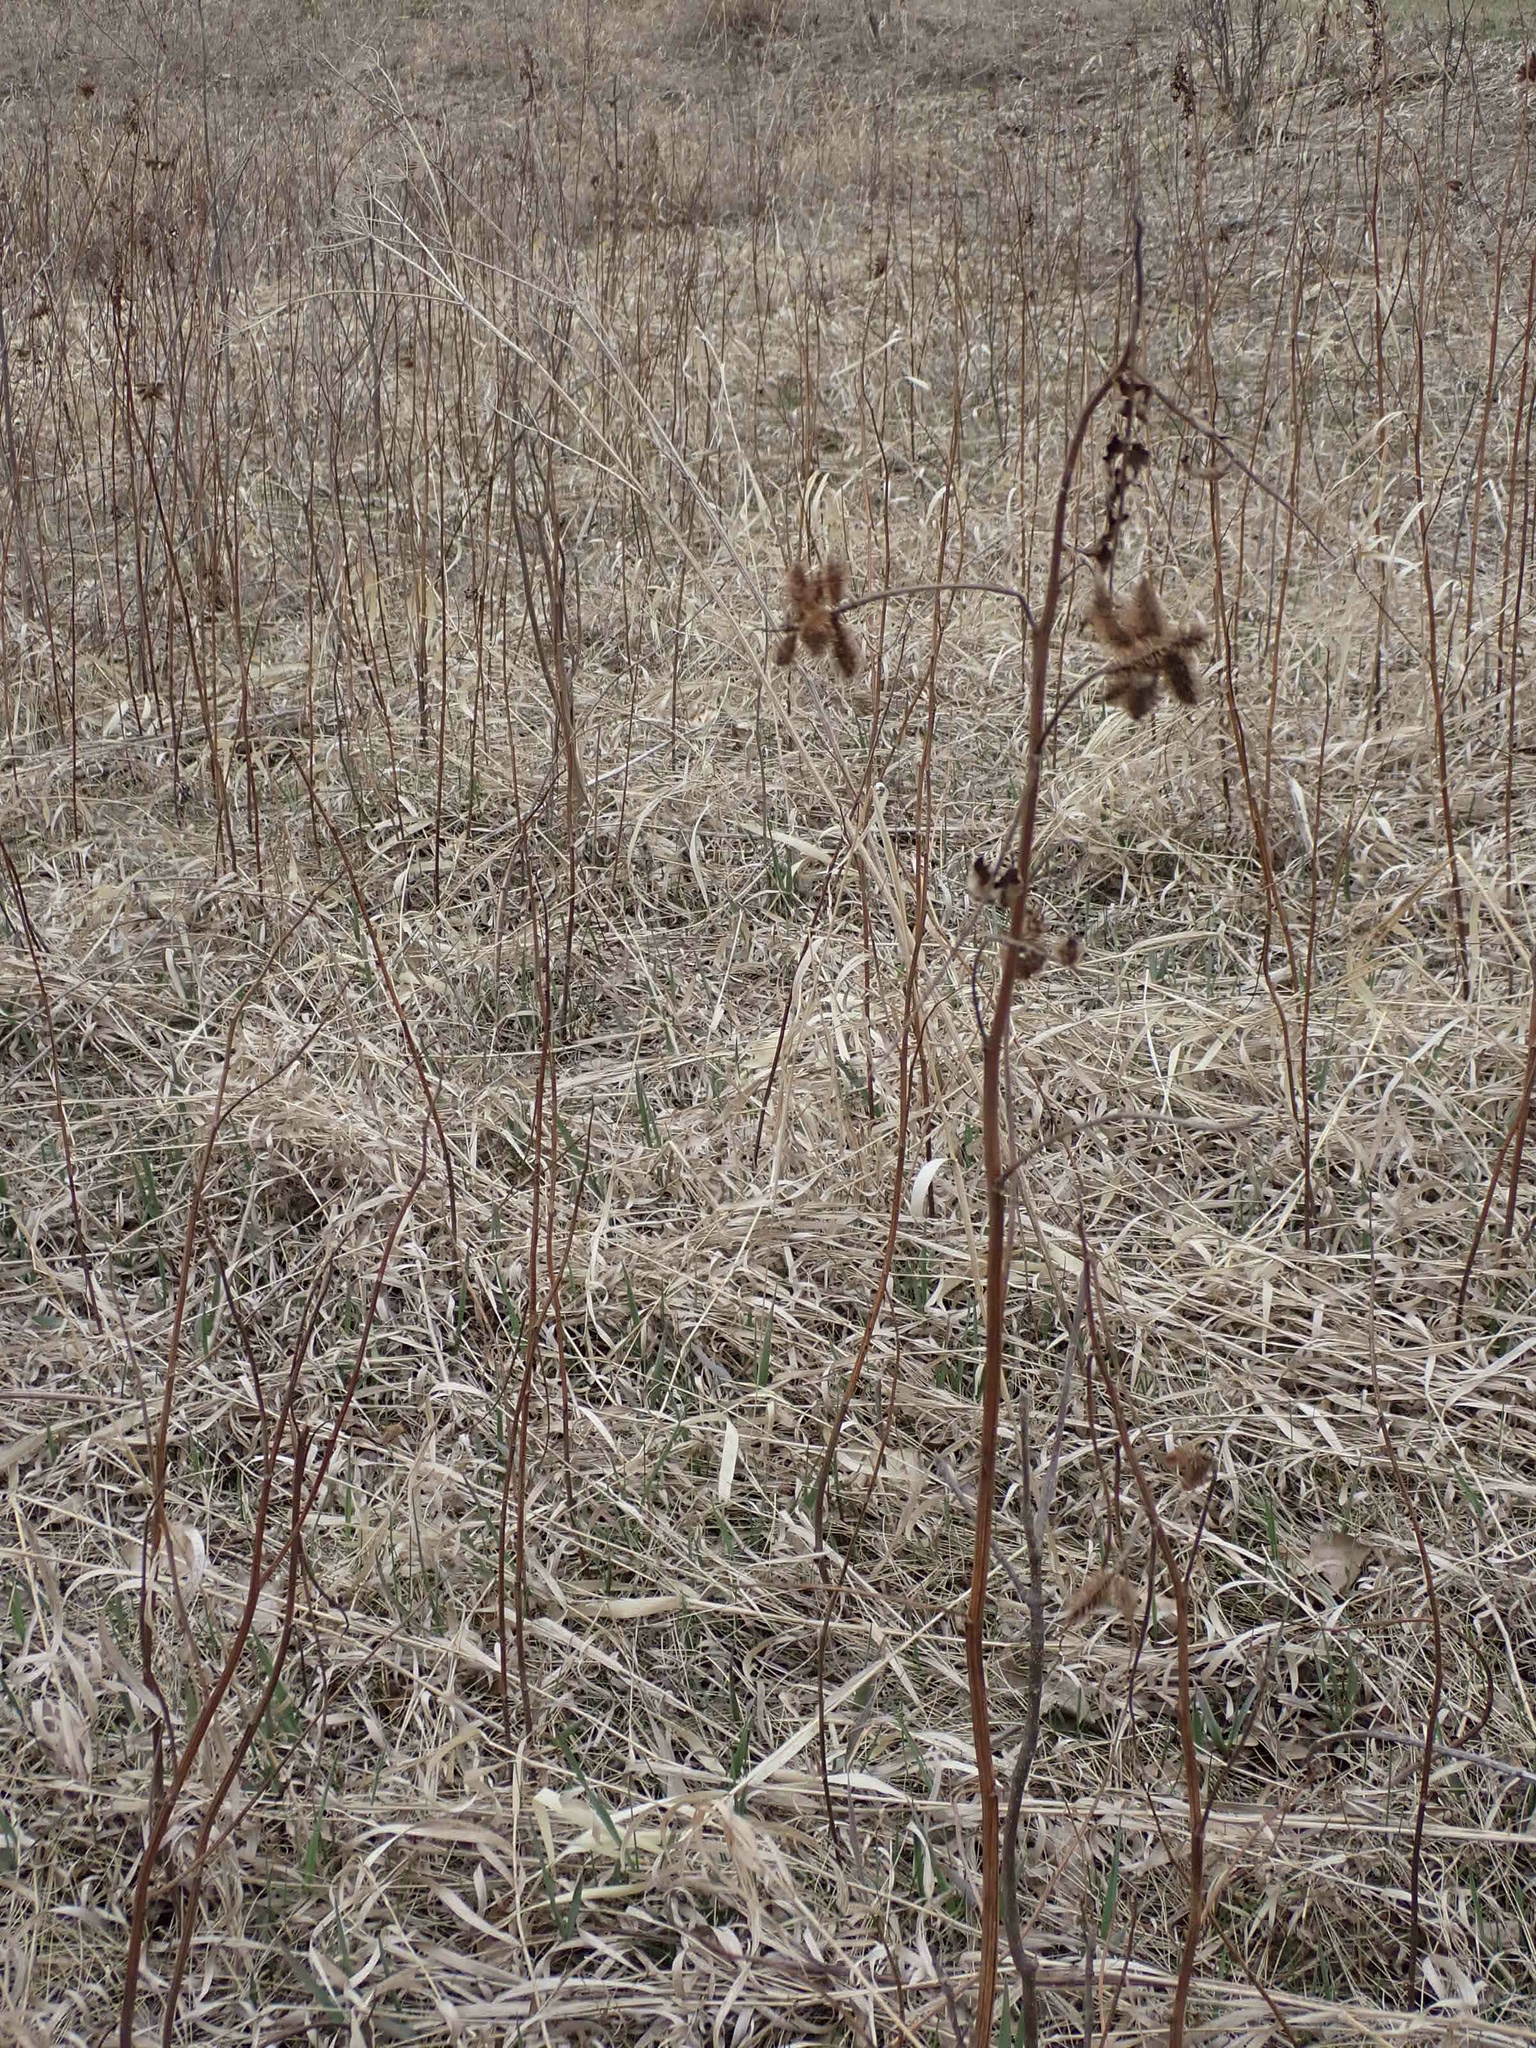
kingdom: Plantae
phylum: Tracheophyta
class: Magnoliopsida
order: Fabales
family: Fabaceae
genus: Glycyrrhiza
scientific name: Glycyrrhiza lepidota
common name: American liquorice
